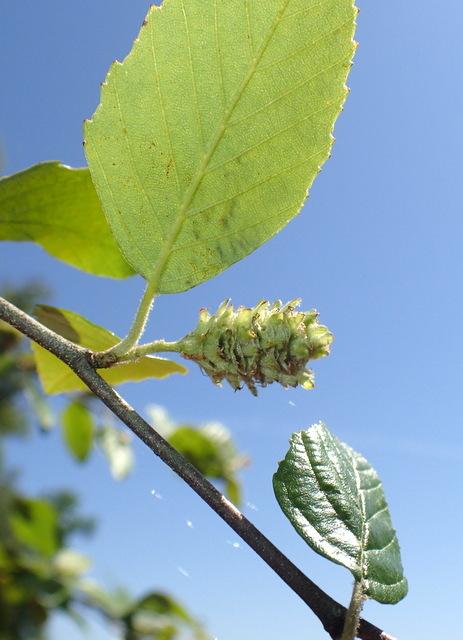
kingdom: Plantae
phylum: Tracheophyta
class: Magnoliopsida
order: Fagales
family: Betulaceae
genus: Alnus
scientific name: Alnus serrulata
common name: Hazel alder
